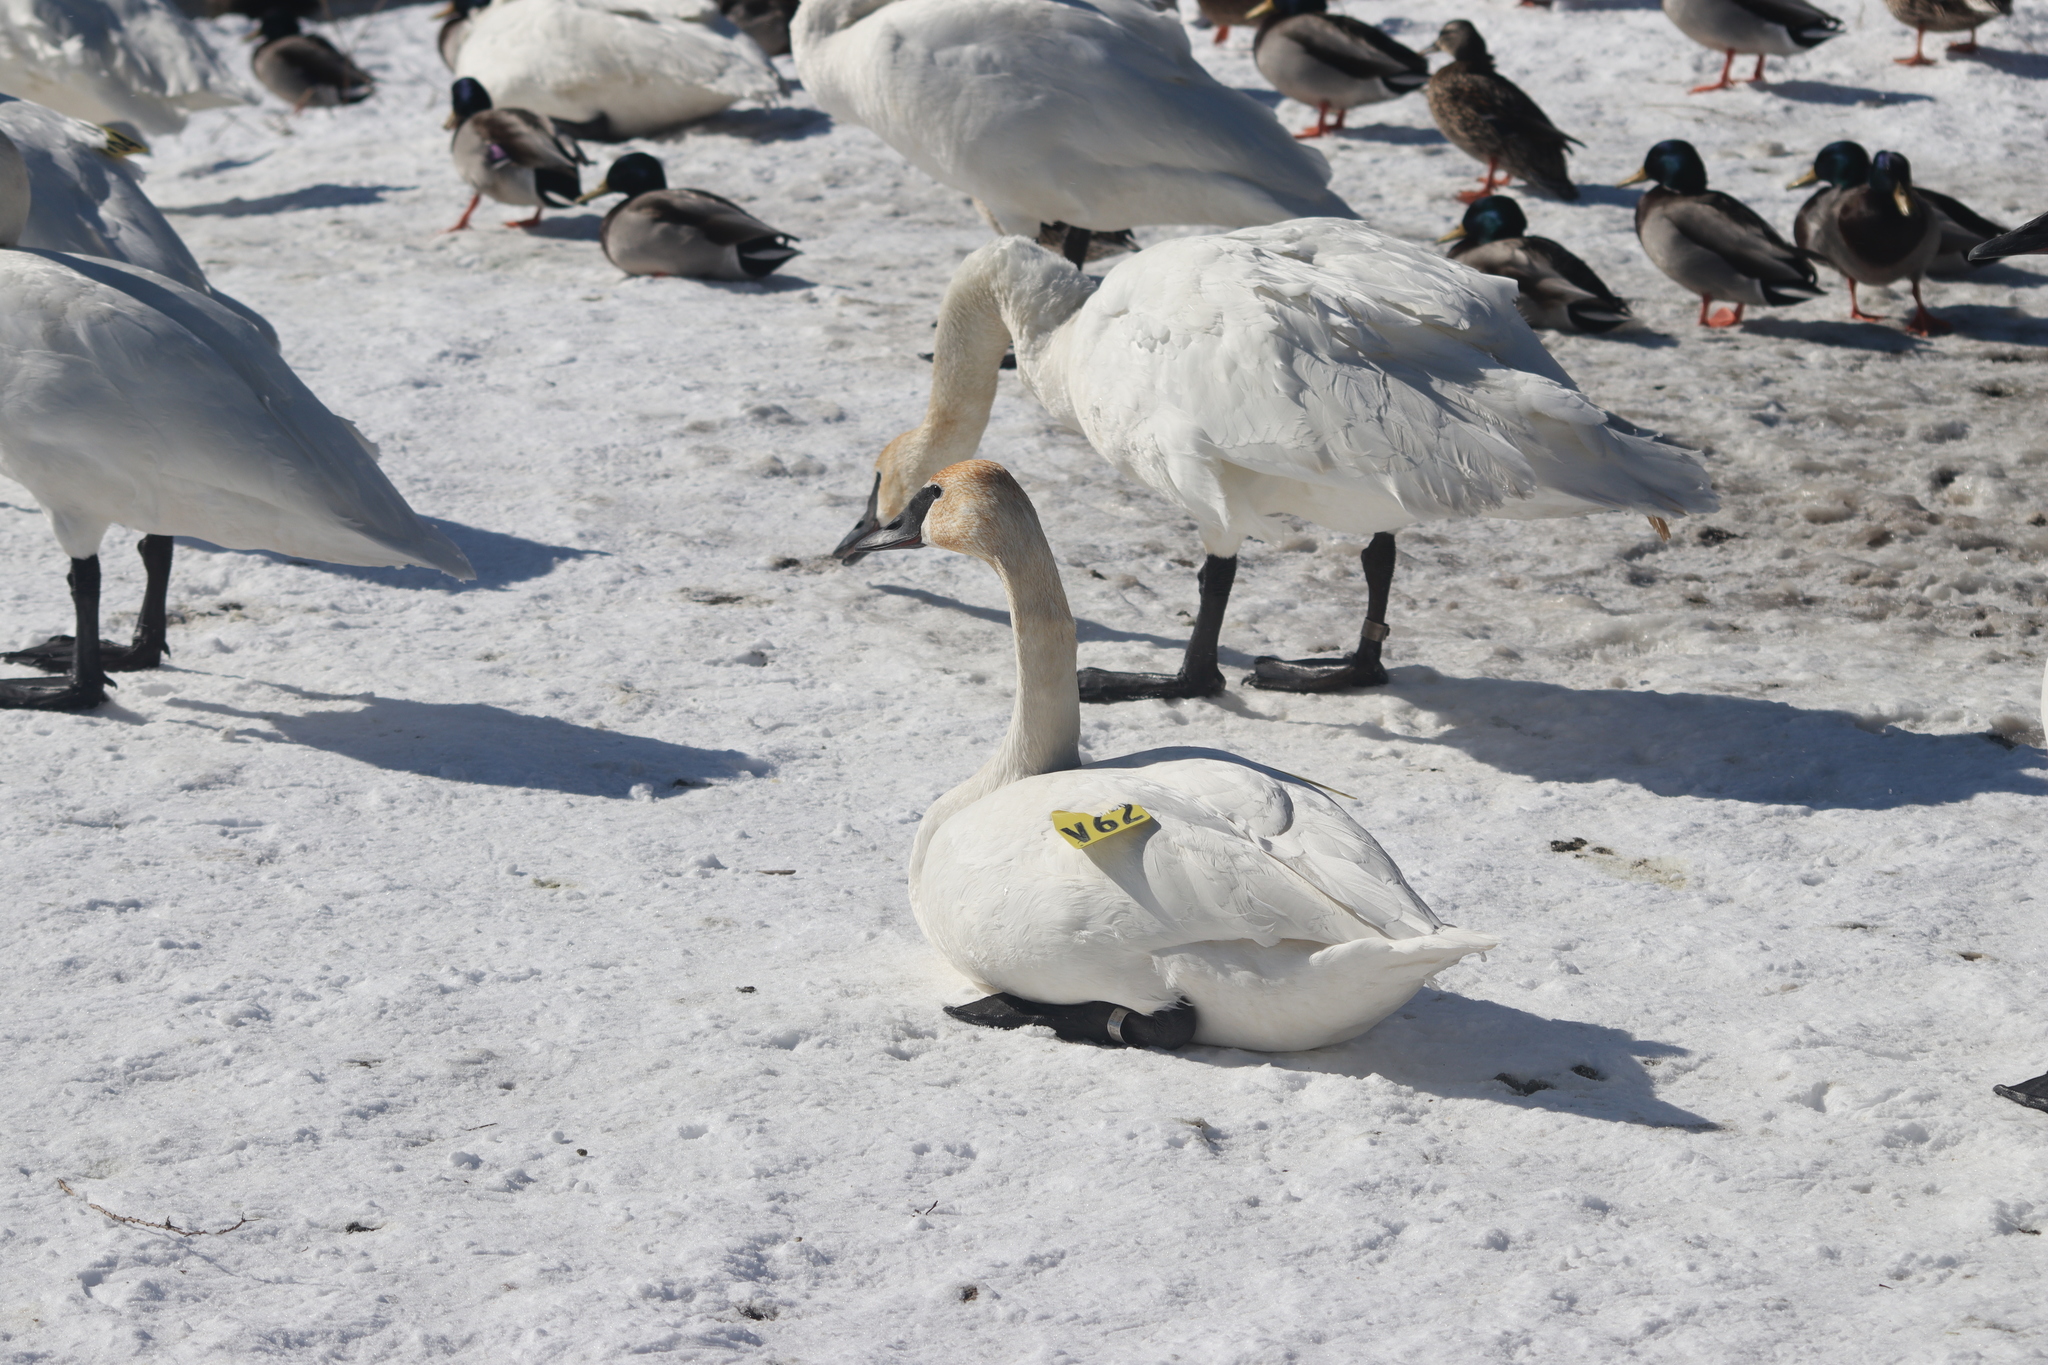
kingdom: Animalia
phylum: Chordata
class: Aves
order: Anseriformes
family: Anatidae
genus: Cygnus
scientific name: Cygnus buccinator
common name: Trumpeter swan
